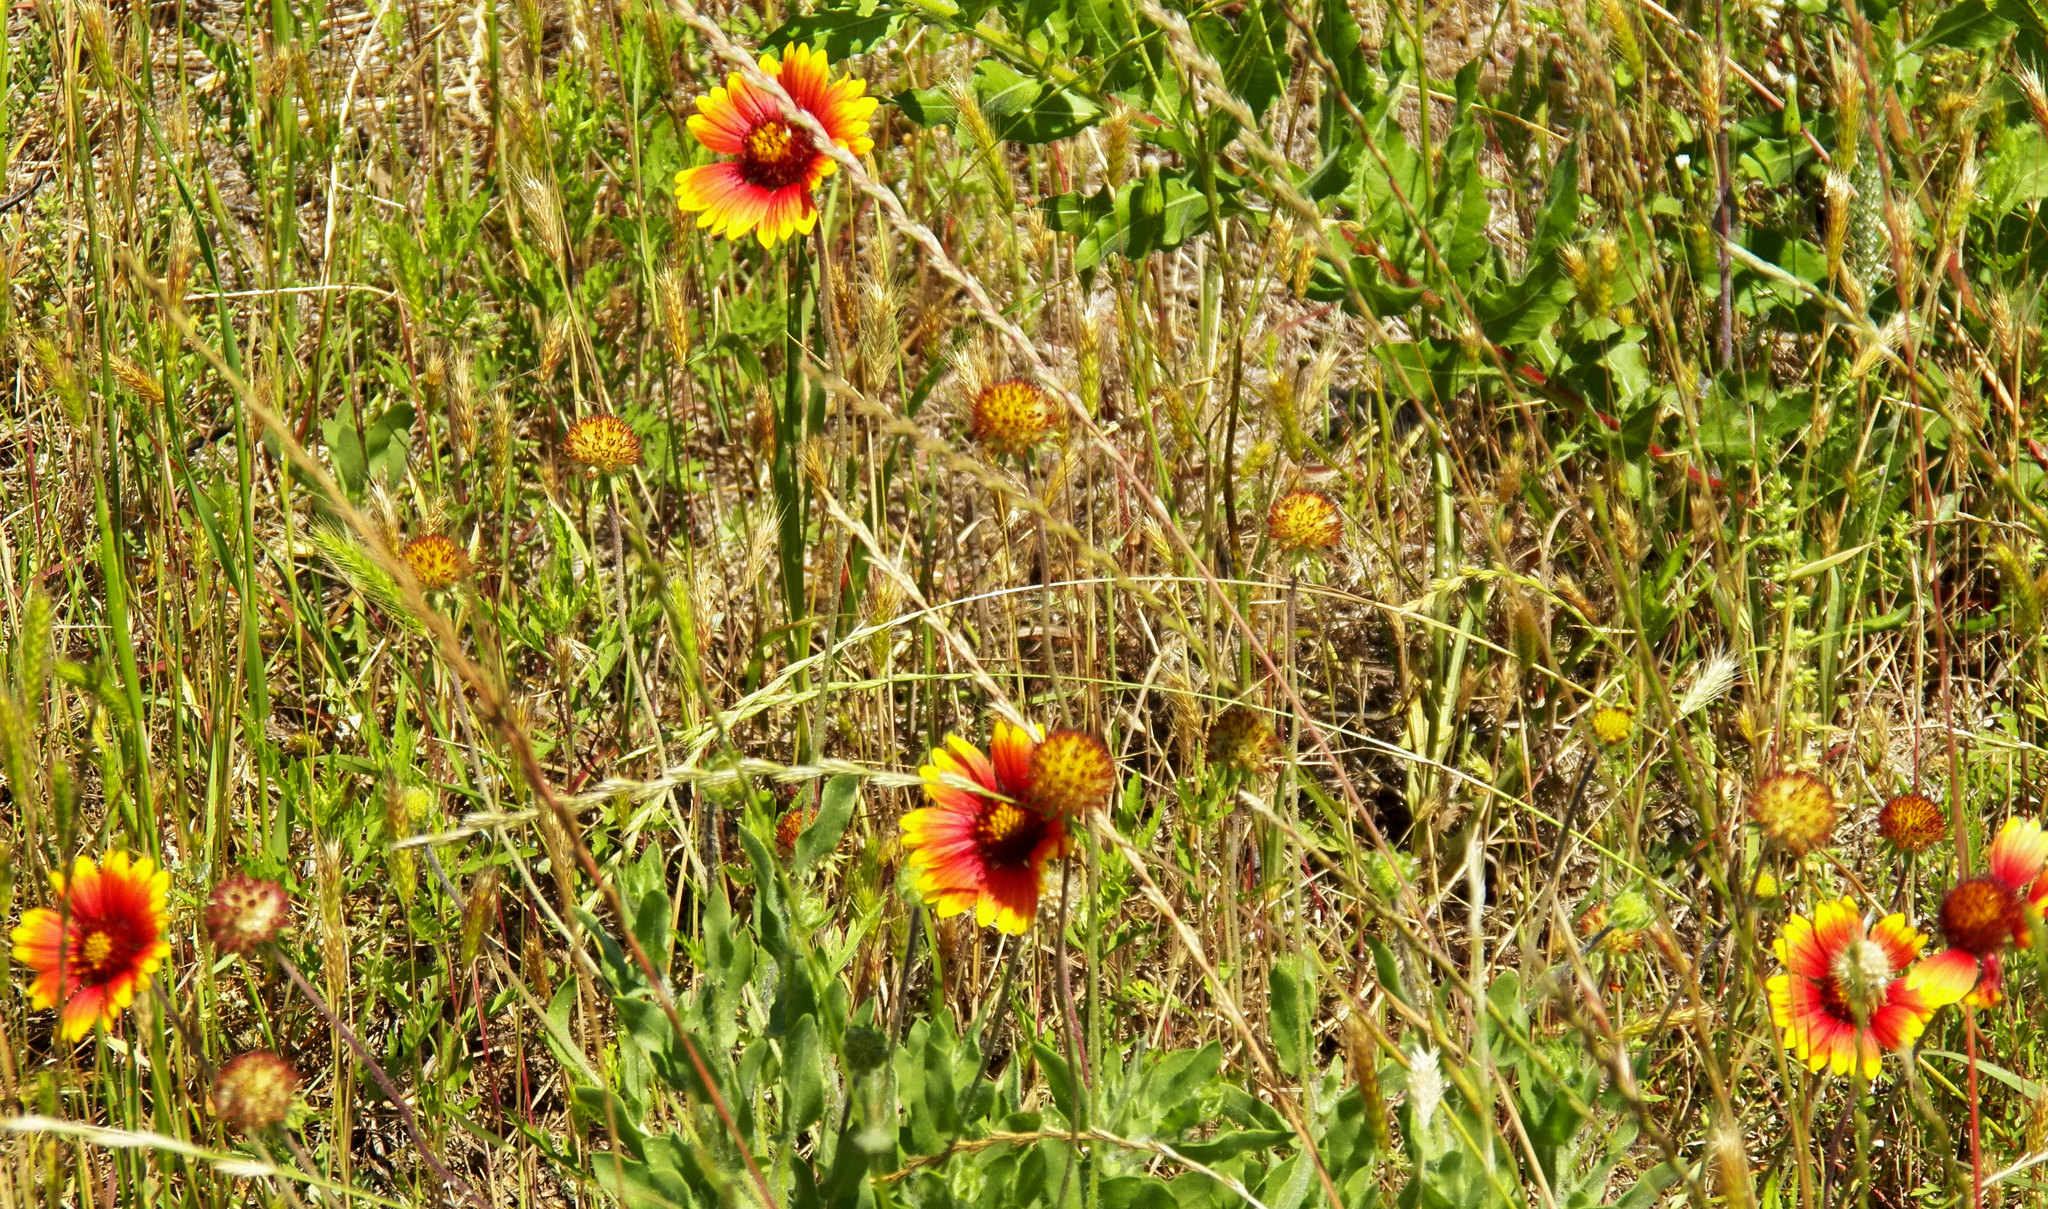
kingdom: Plantae
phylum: Tracheophyta
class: Magnoliopsida
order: Asterales
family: Asteraceae
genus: Gaillardia
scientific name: Gaillardia pulchella
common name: Firewheel
